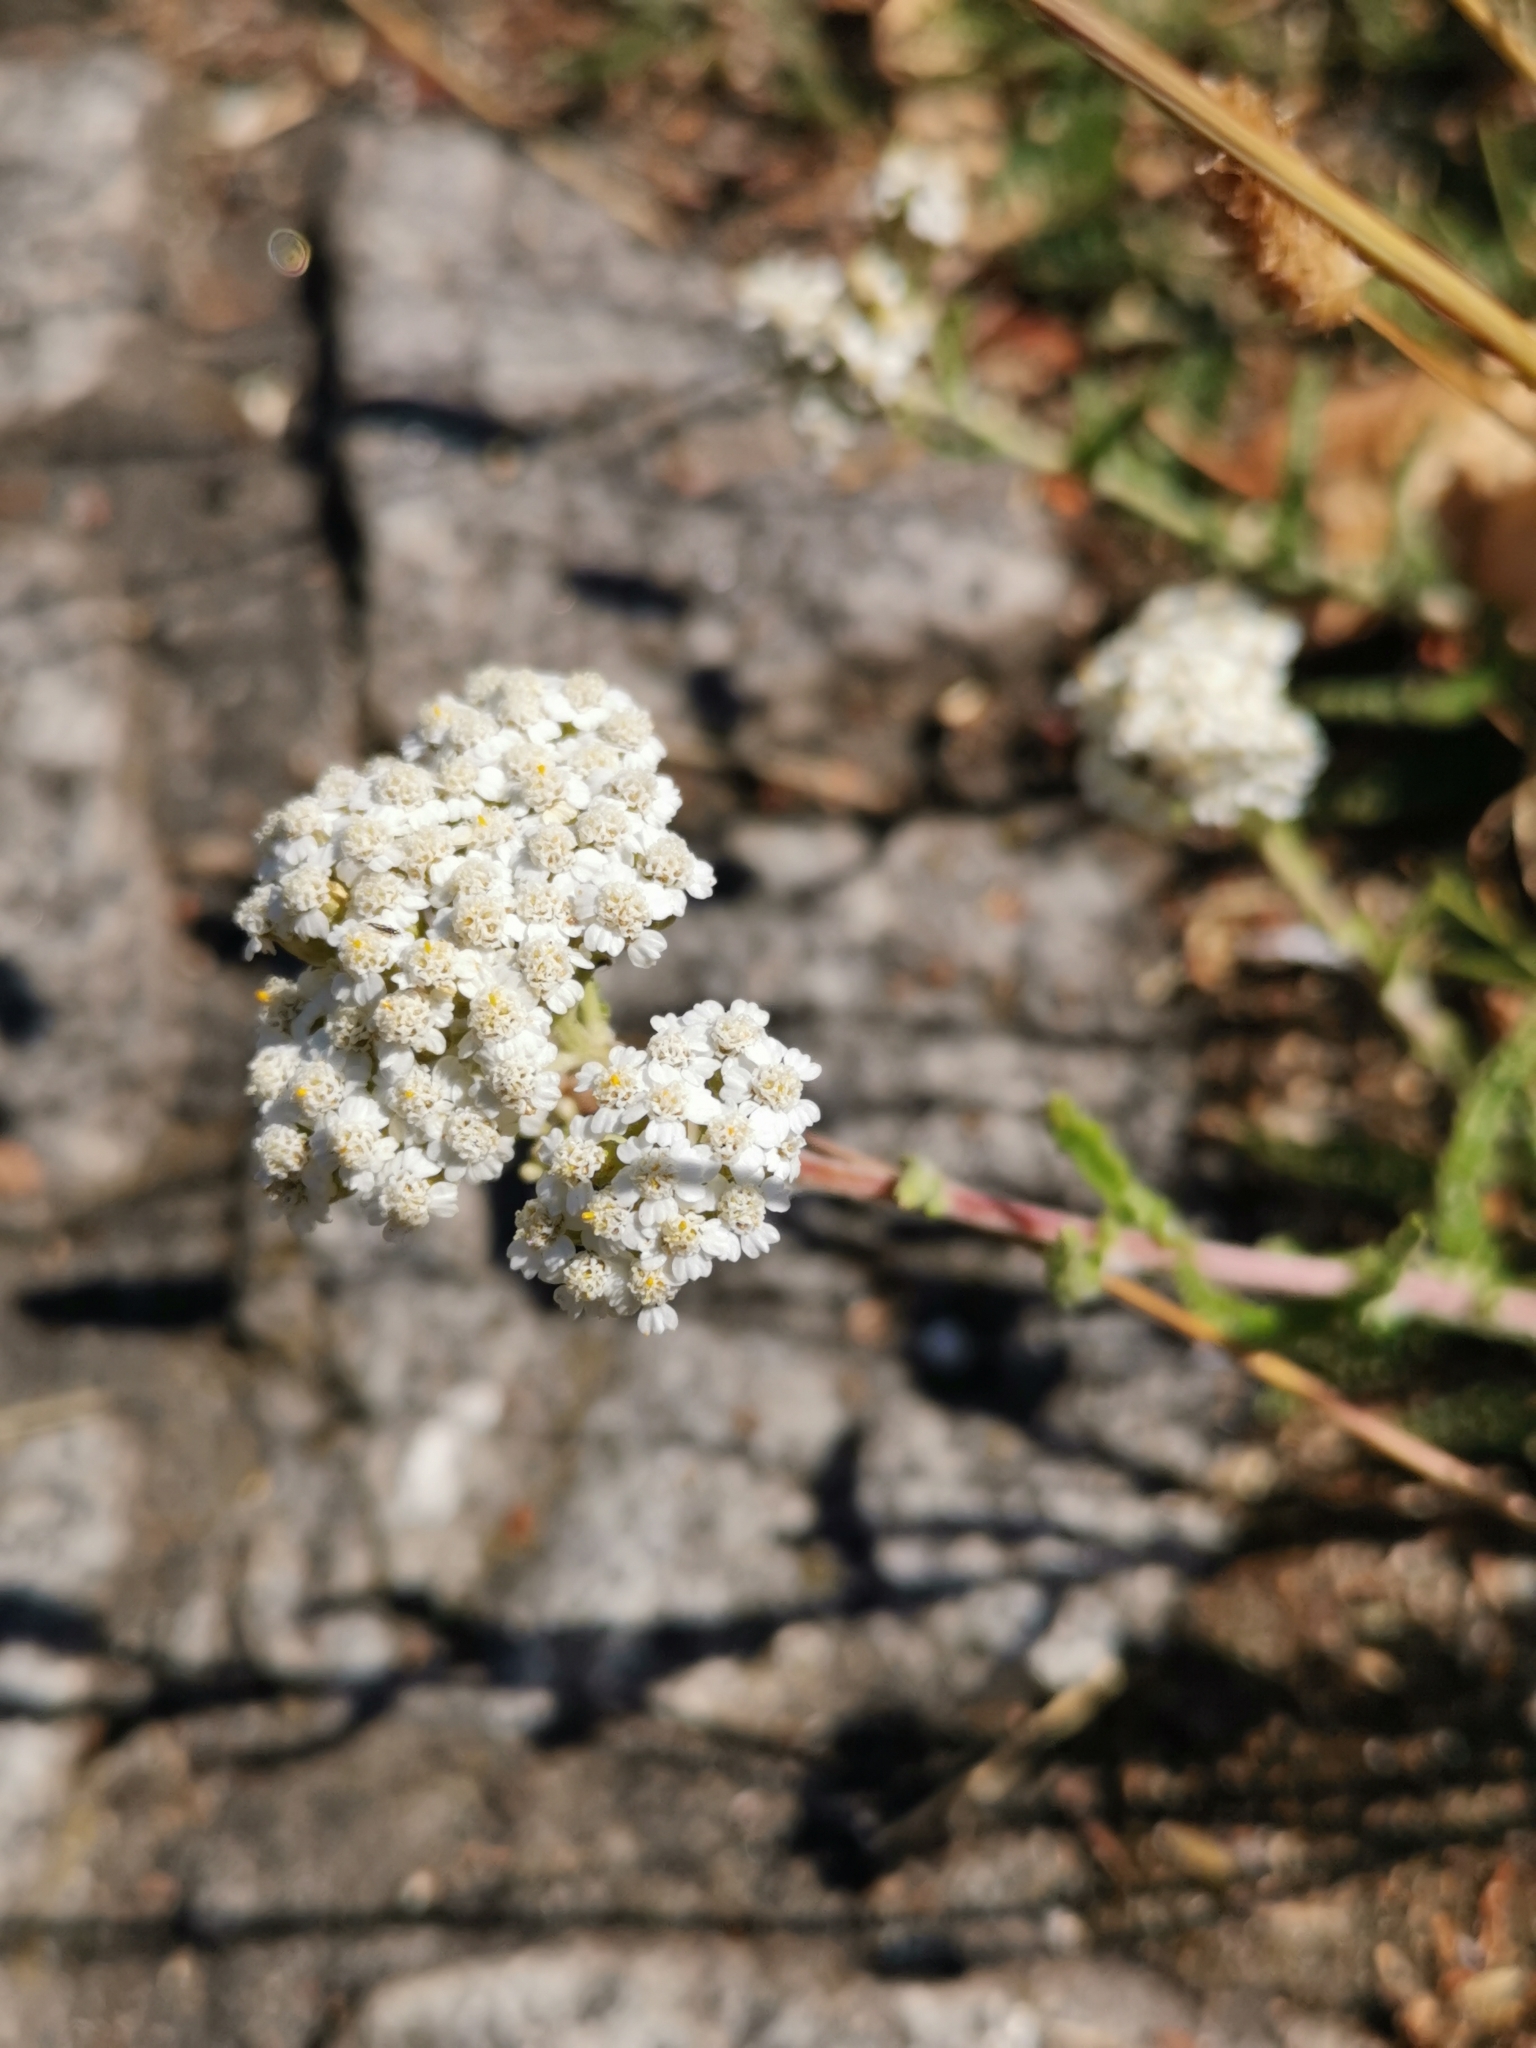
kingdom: Plantae
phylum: Tracheophyta
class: Magnoliopsida
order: Asterales
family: Asteraceae
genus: Achillea
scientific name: Achillea millefolium
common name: Yarrow
